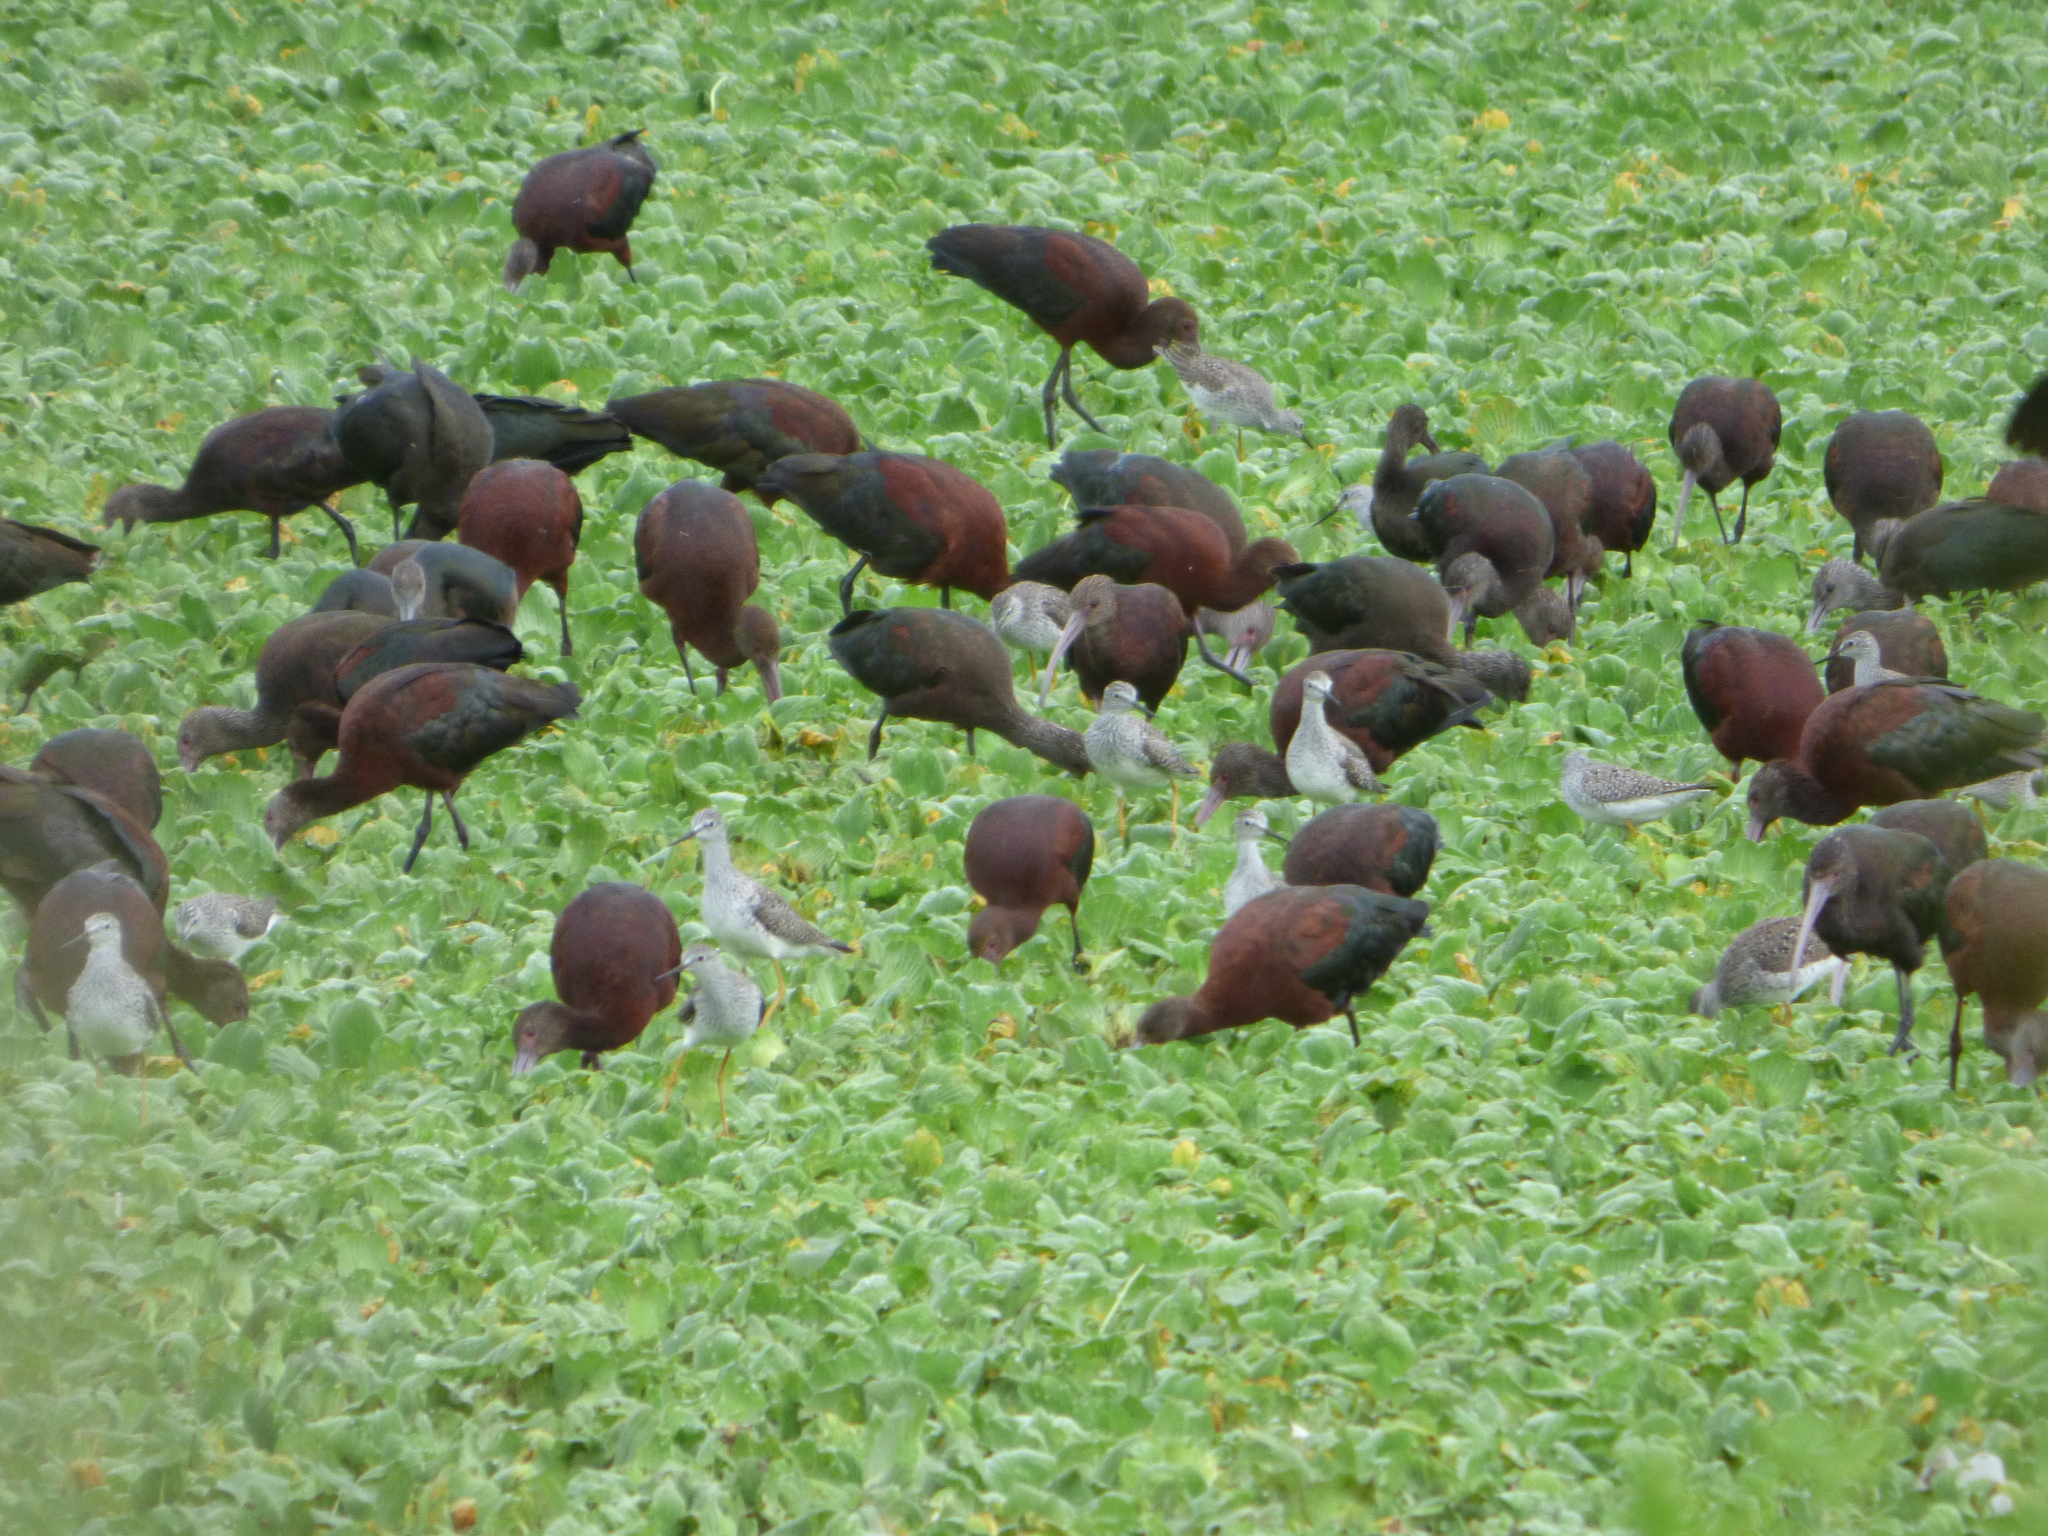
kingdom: Animalia
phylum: Chordata
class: Aves
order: Pelecaniformes
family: Threskiornithidae
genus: Plegadis
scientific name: Plegadis chihi
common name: White-faced ibis
